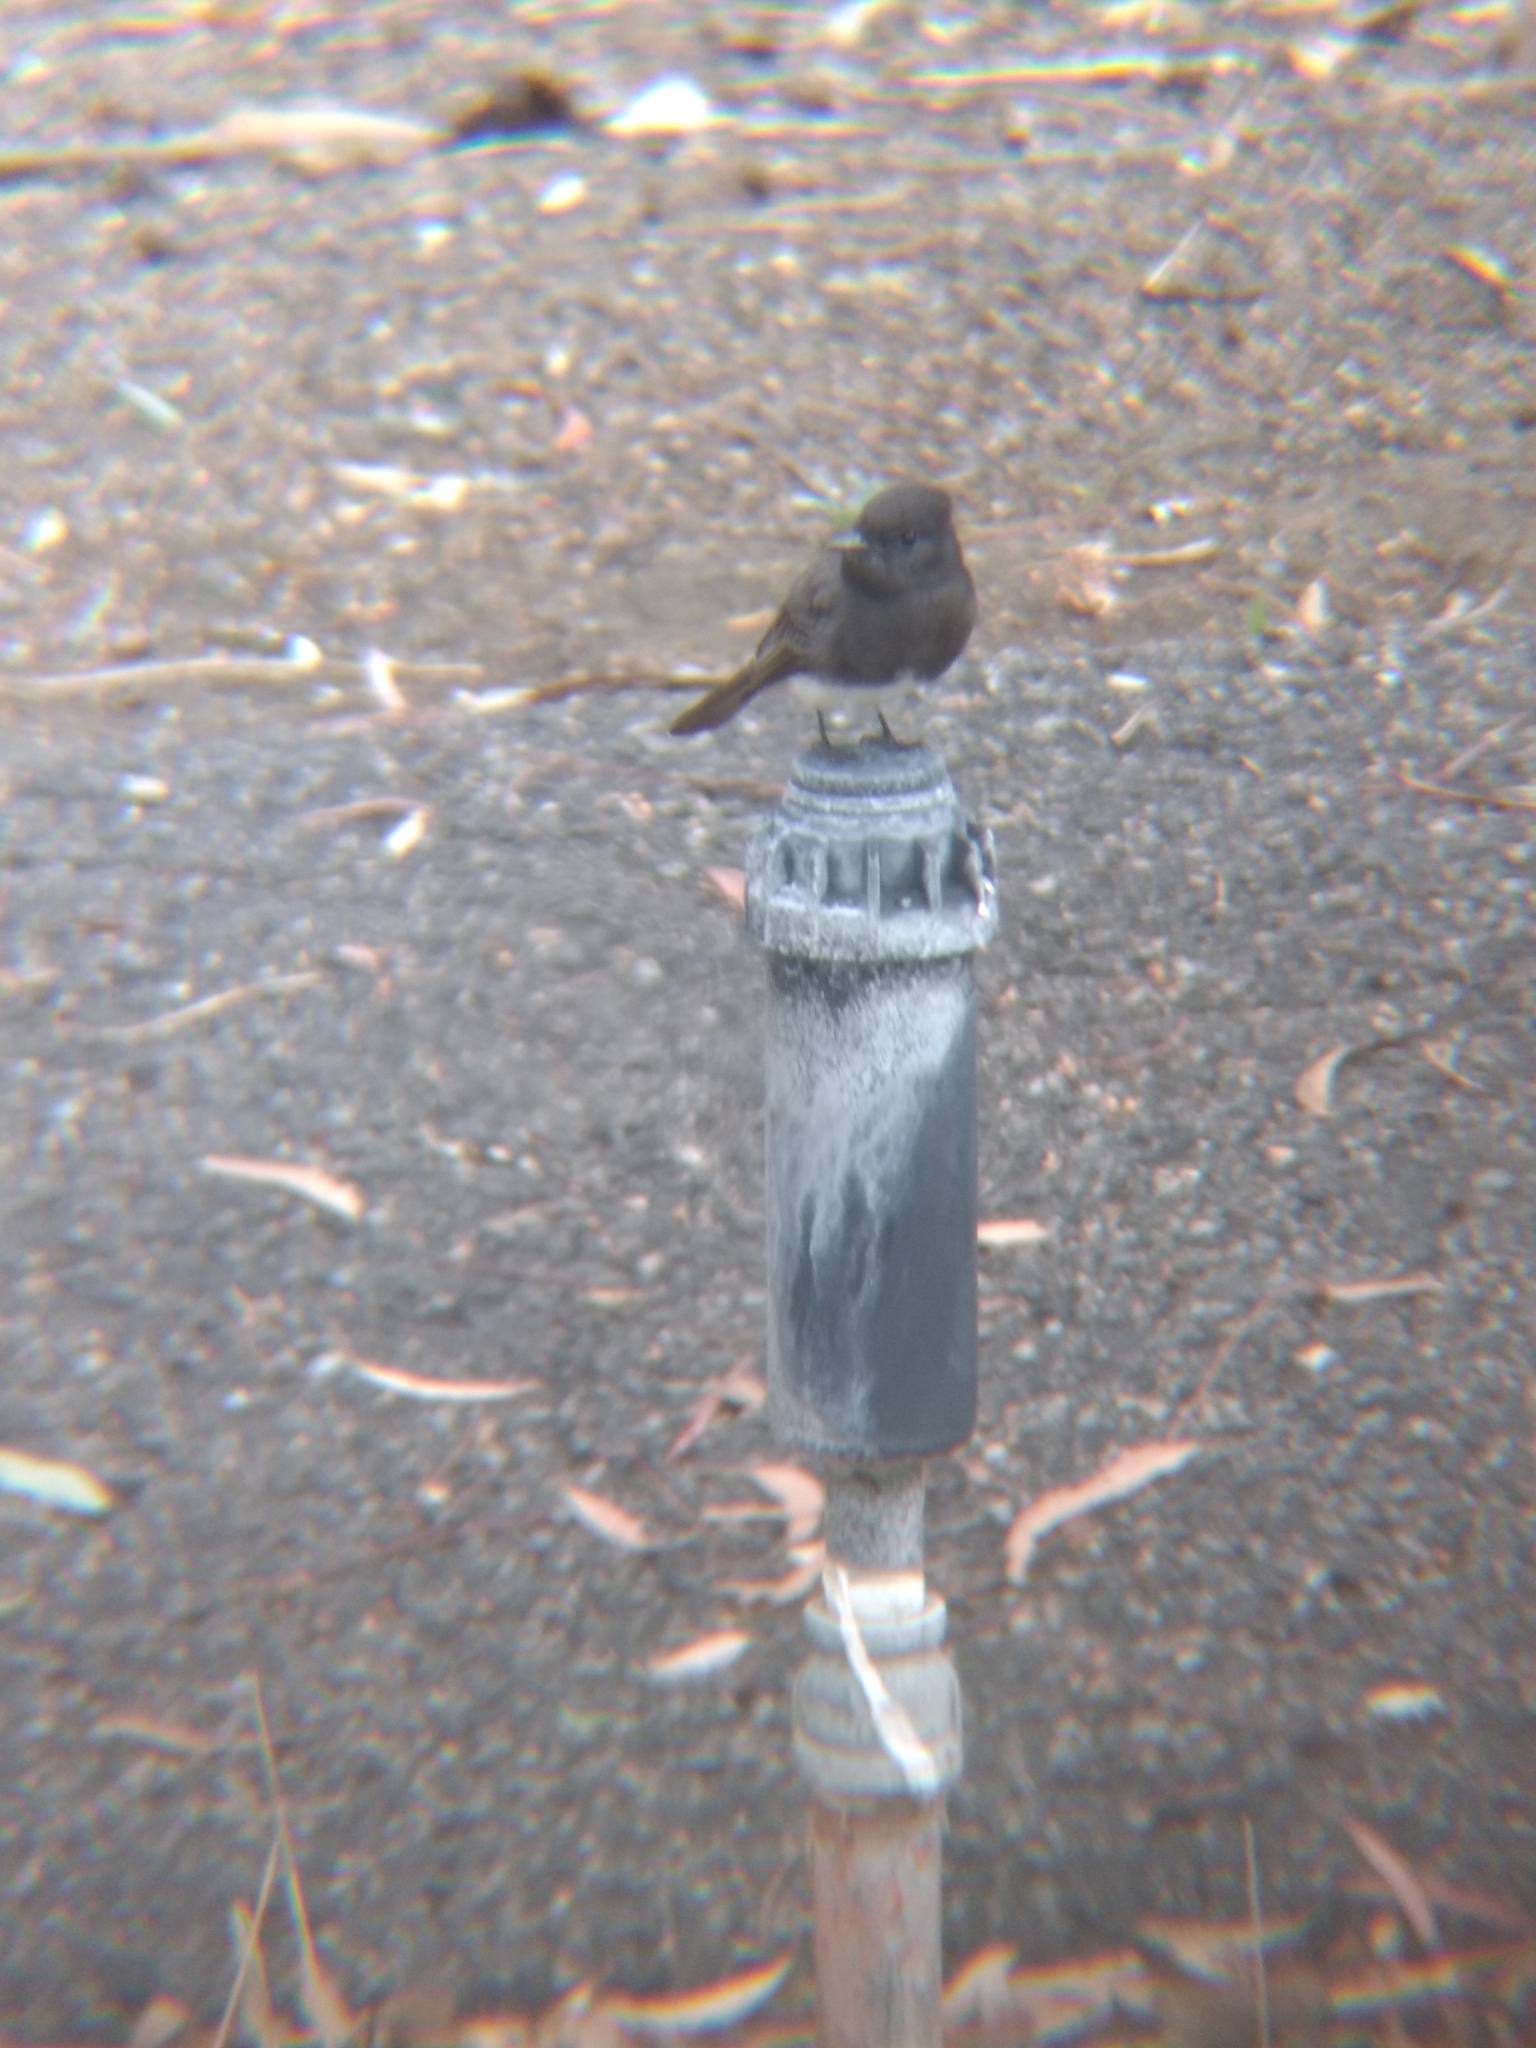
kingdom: Animalia
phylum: Chordata
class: Aves
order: Passeriformes
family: Tyrannidae
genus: Sayornis
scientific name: Sayornis nigricans
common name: Black phoebe
